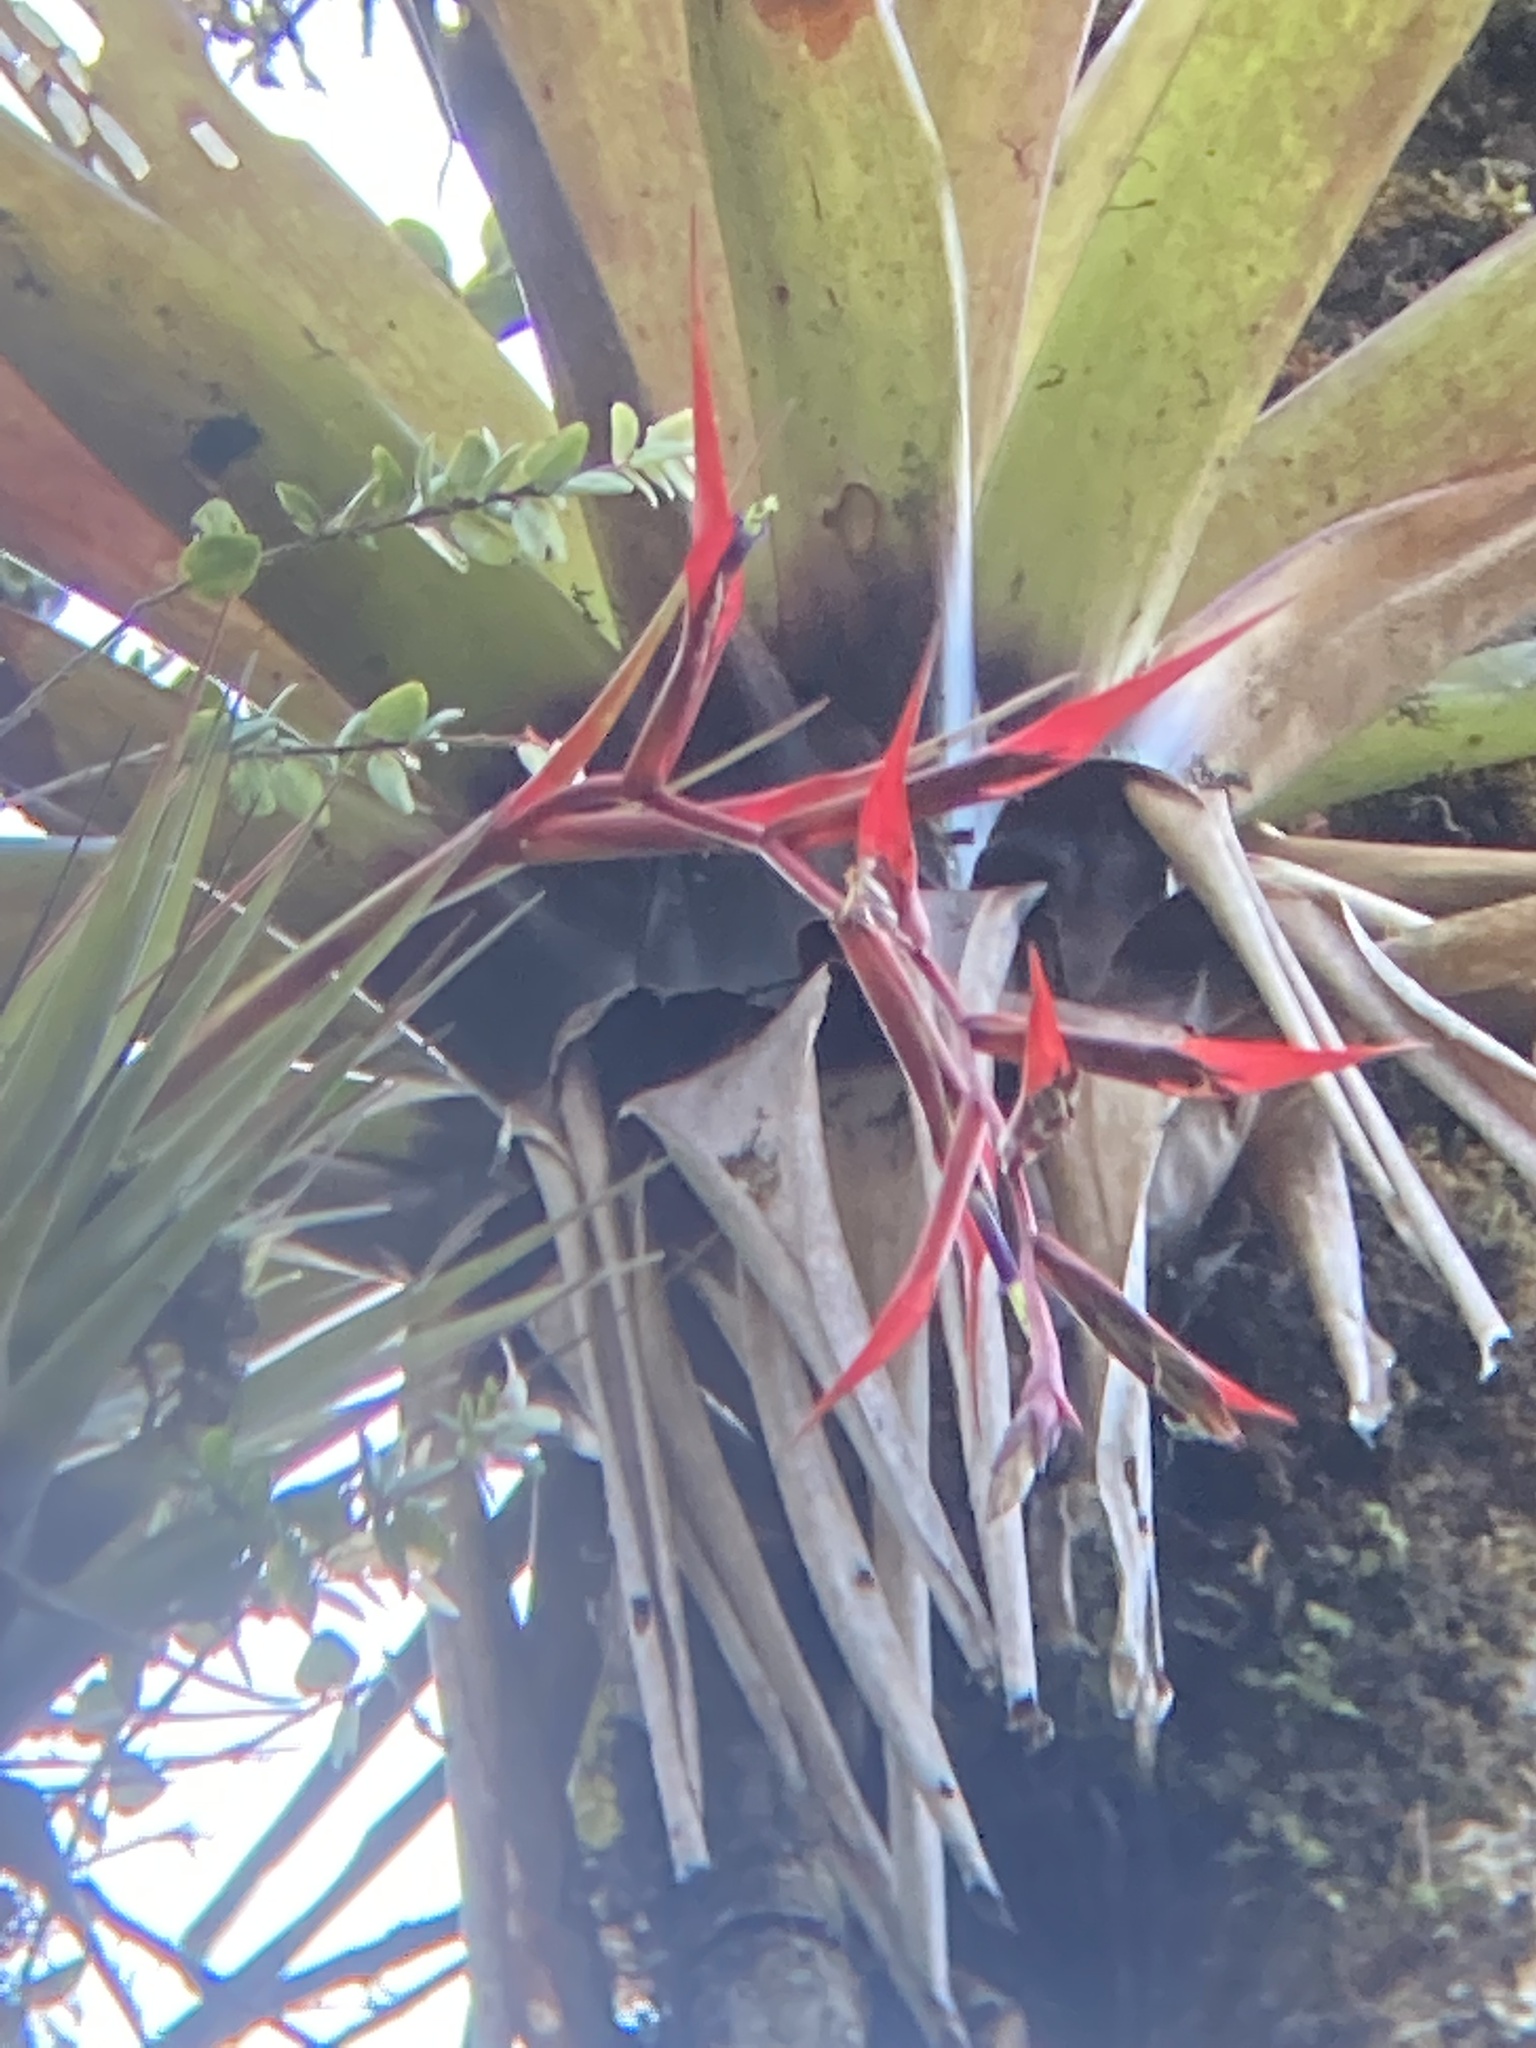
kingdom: Plantae
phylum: Tracheophyta
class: Liliopsida
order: Poales
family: Bromeliaceae
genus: Tillandsia
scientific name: Tillandsia orogenes
